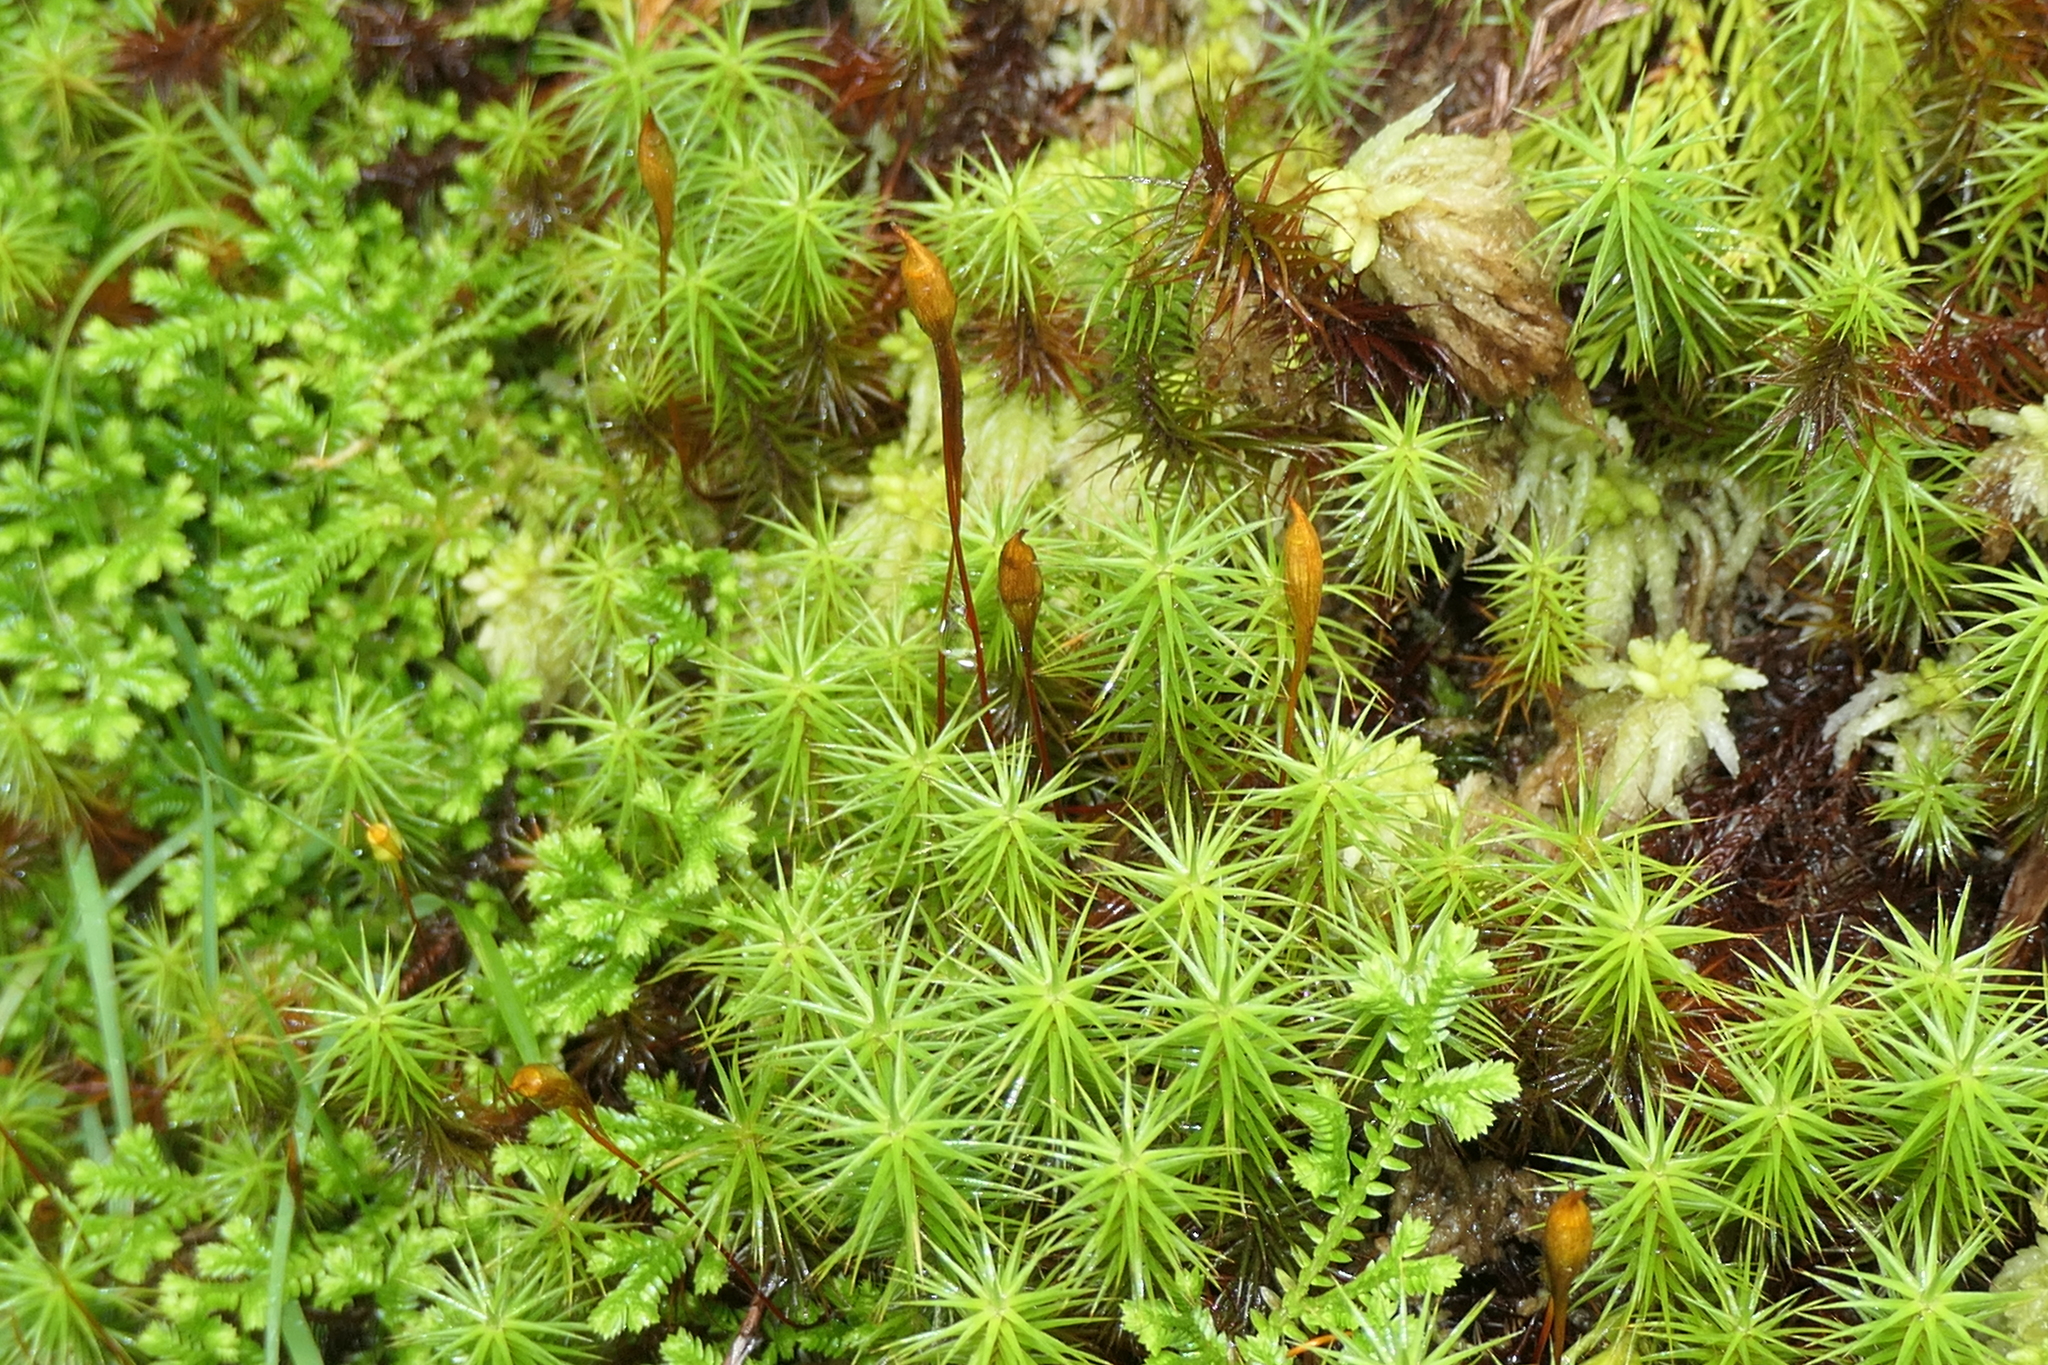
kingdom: Plantae
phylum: Bryophyta
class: Polytrichopsida
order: Polytrichales
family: Polytrichaceae
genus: Polytrichum
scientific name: Polytrichum commune
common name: Common haircap
